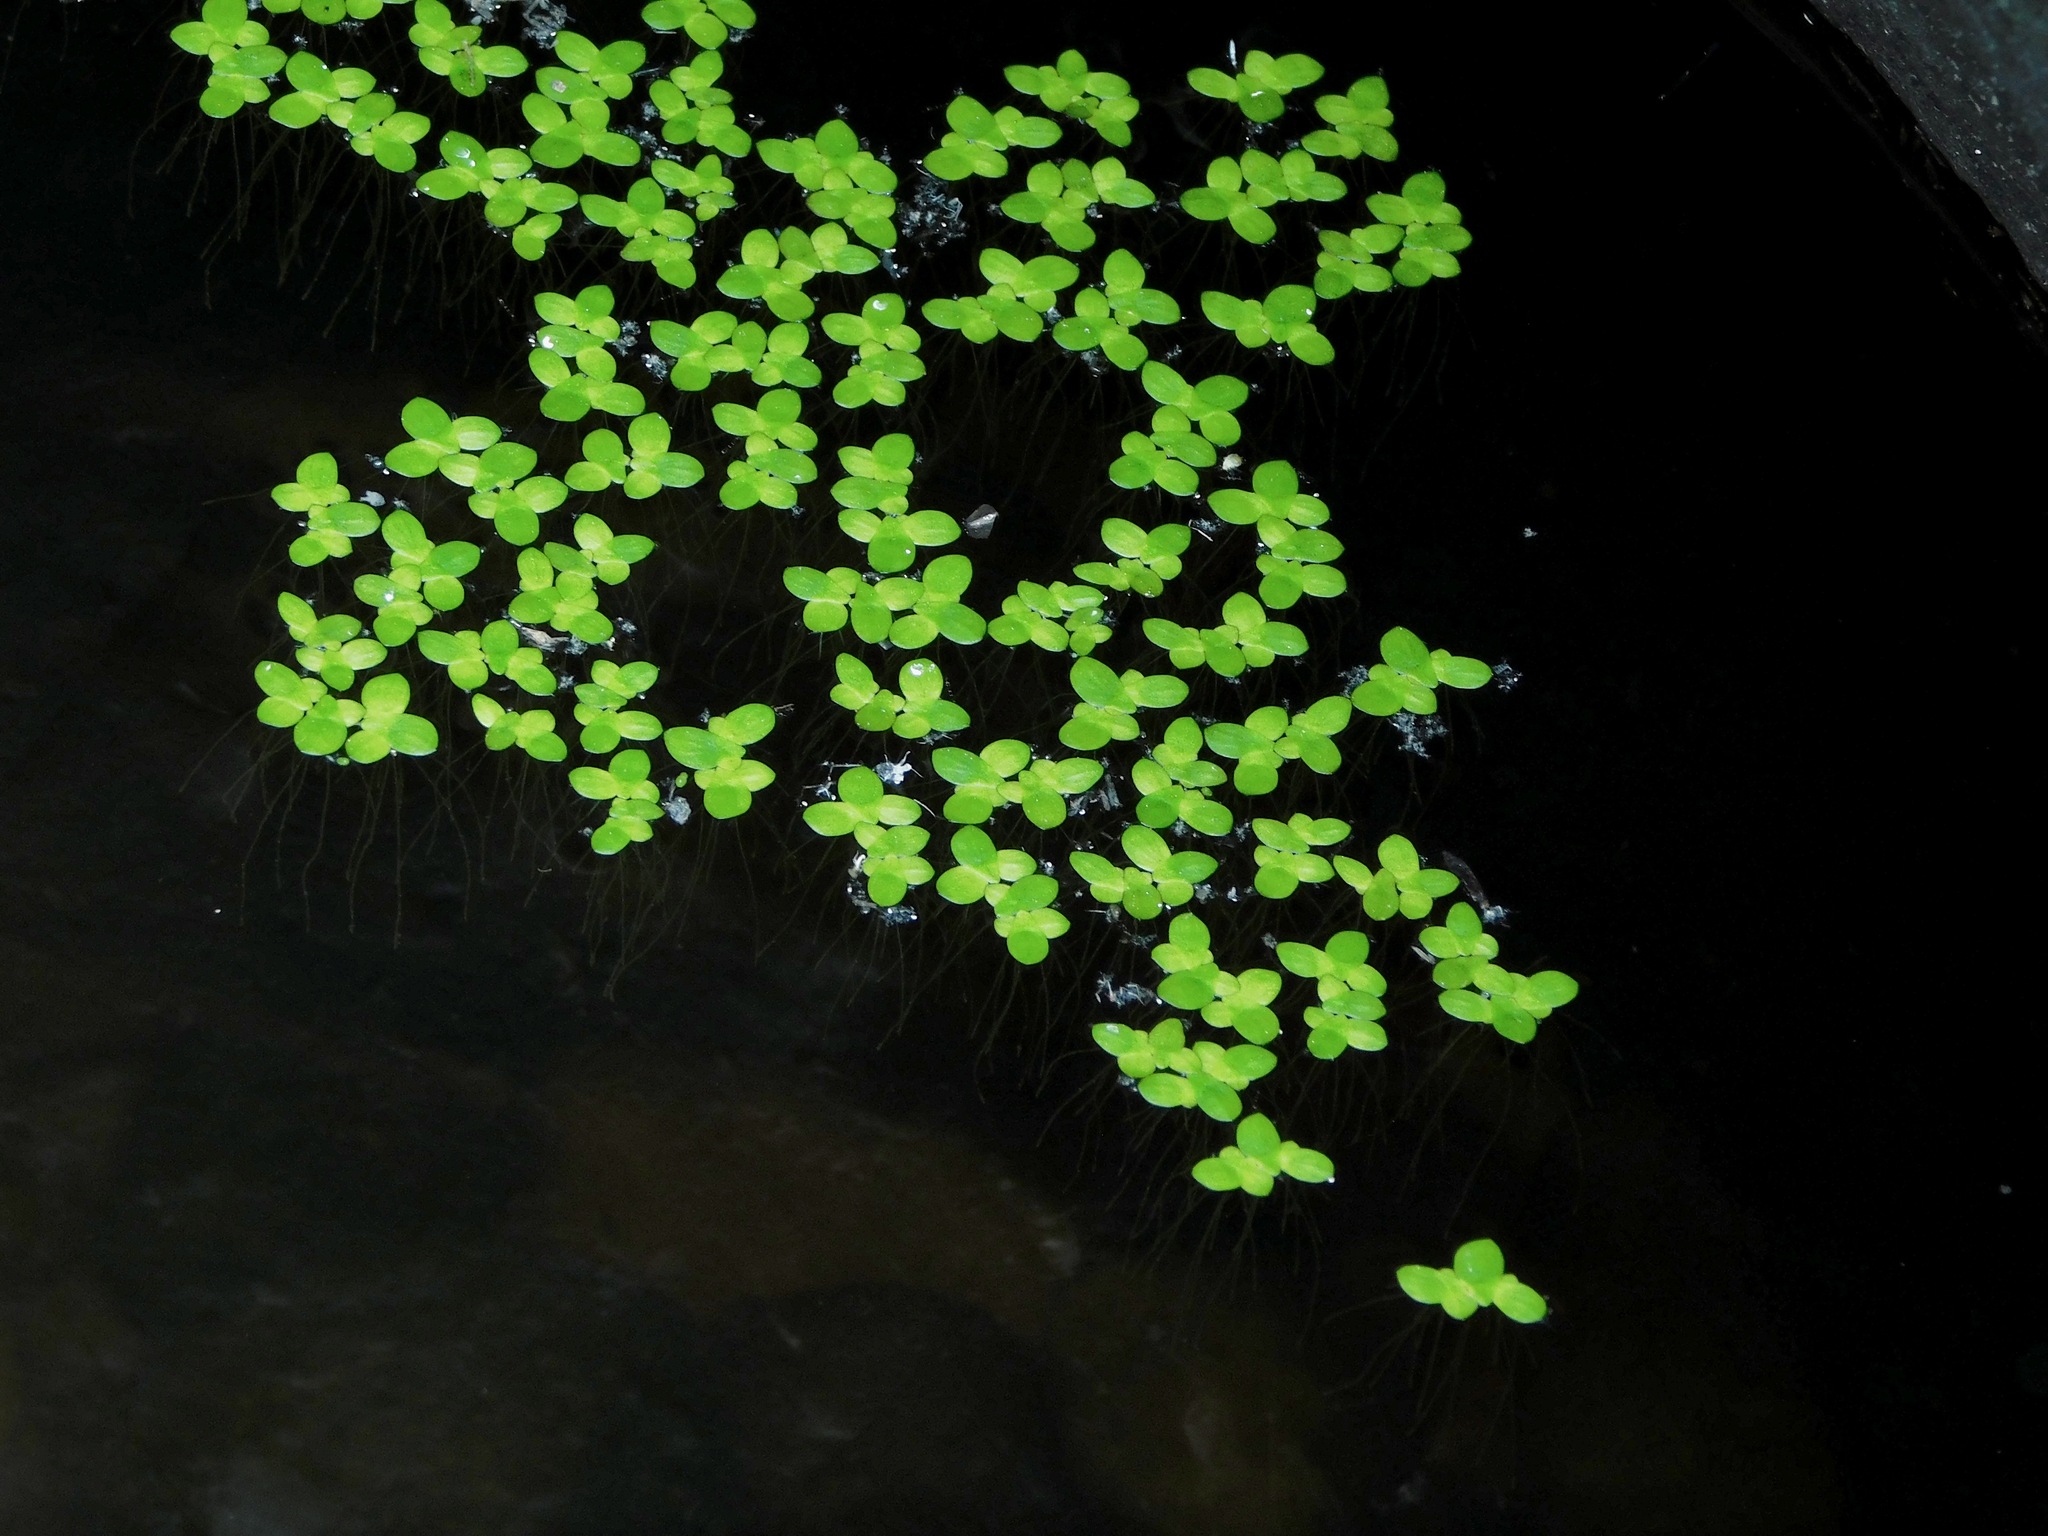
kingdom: Plantae
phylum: Tracheophyta
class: Liliopsida
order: Alismatales
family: Araceae
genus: Lemna
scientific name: Lemna minor
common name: Common duckweed
